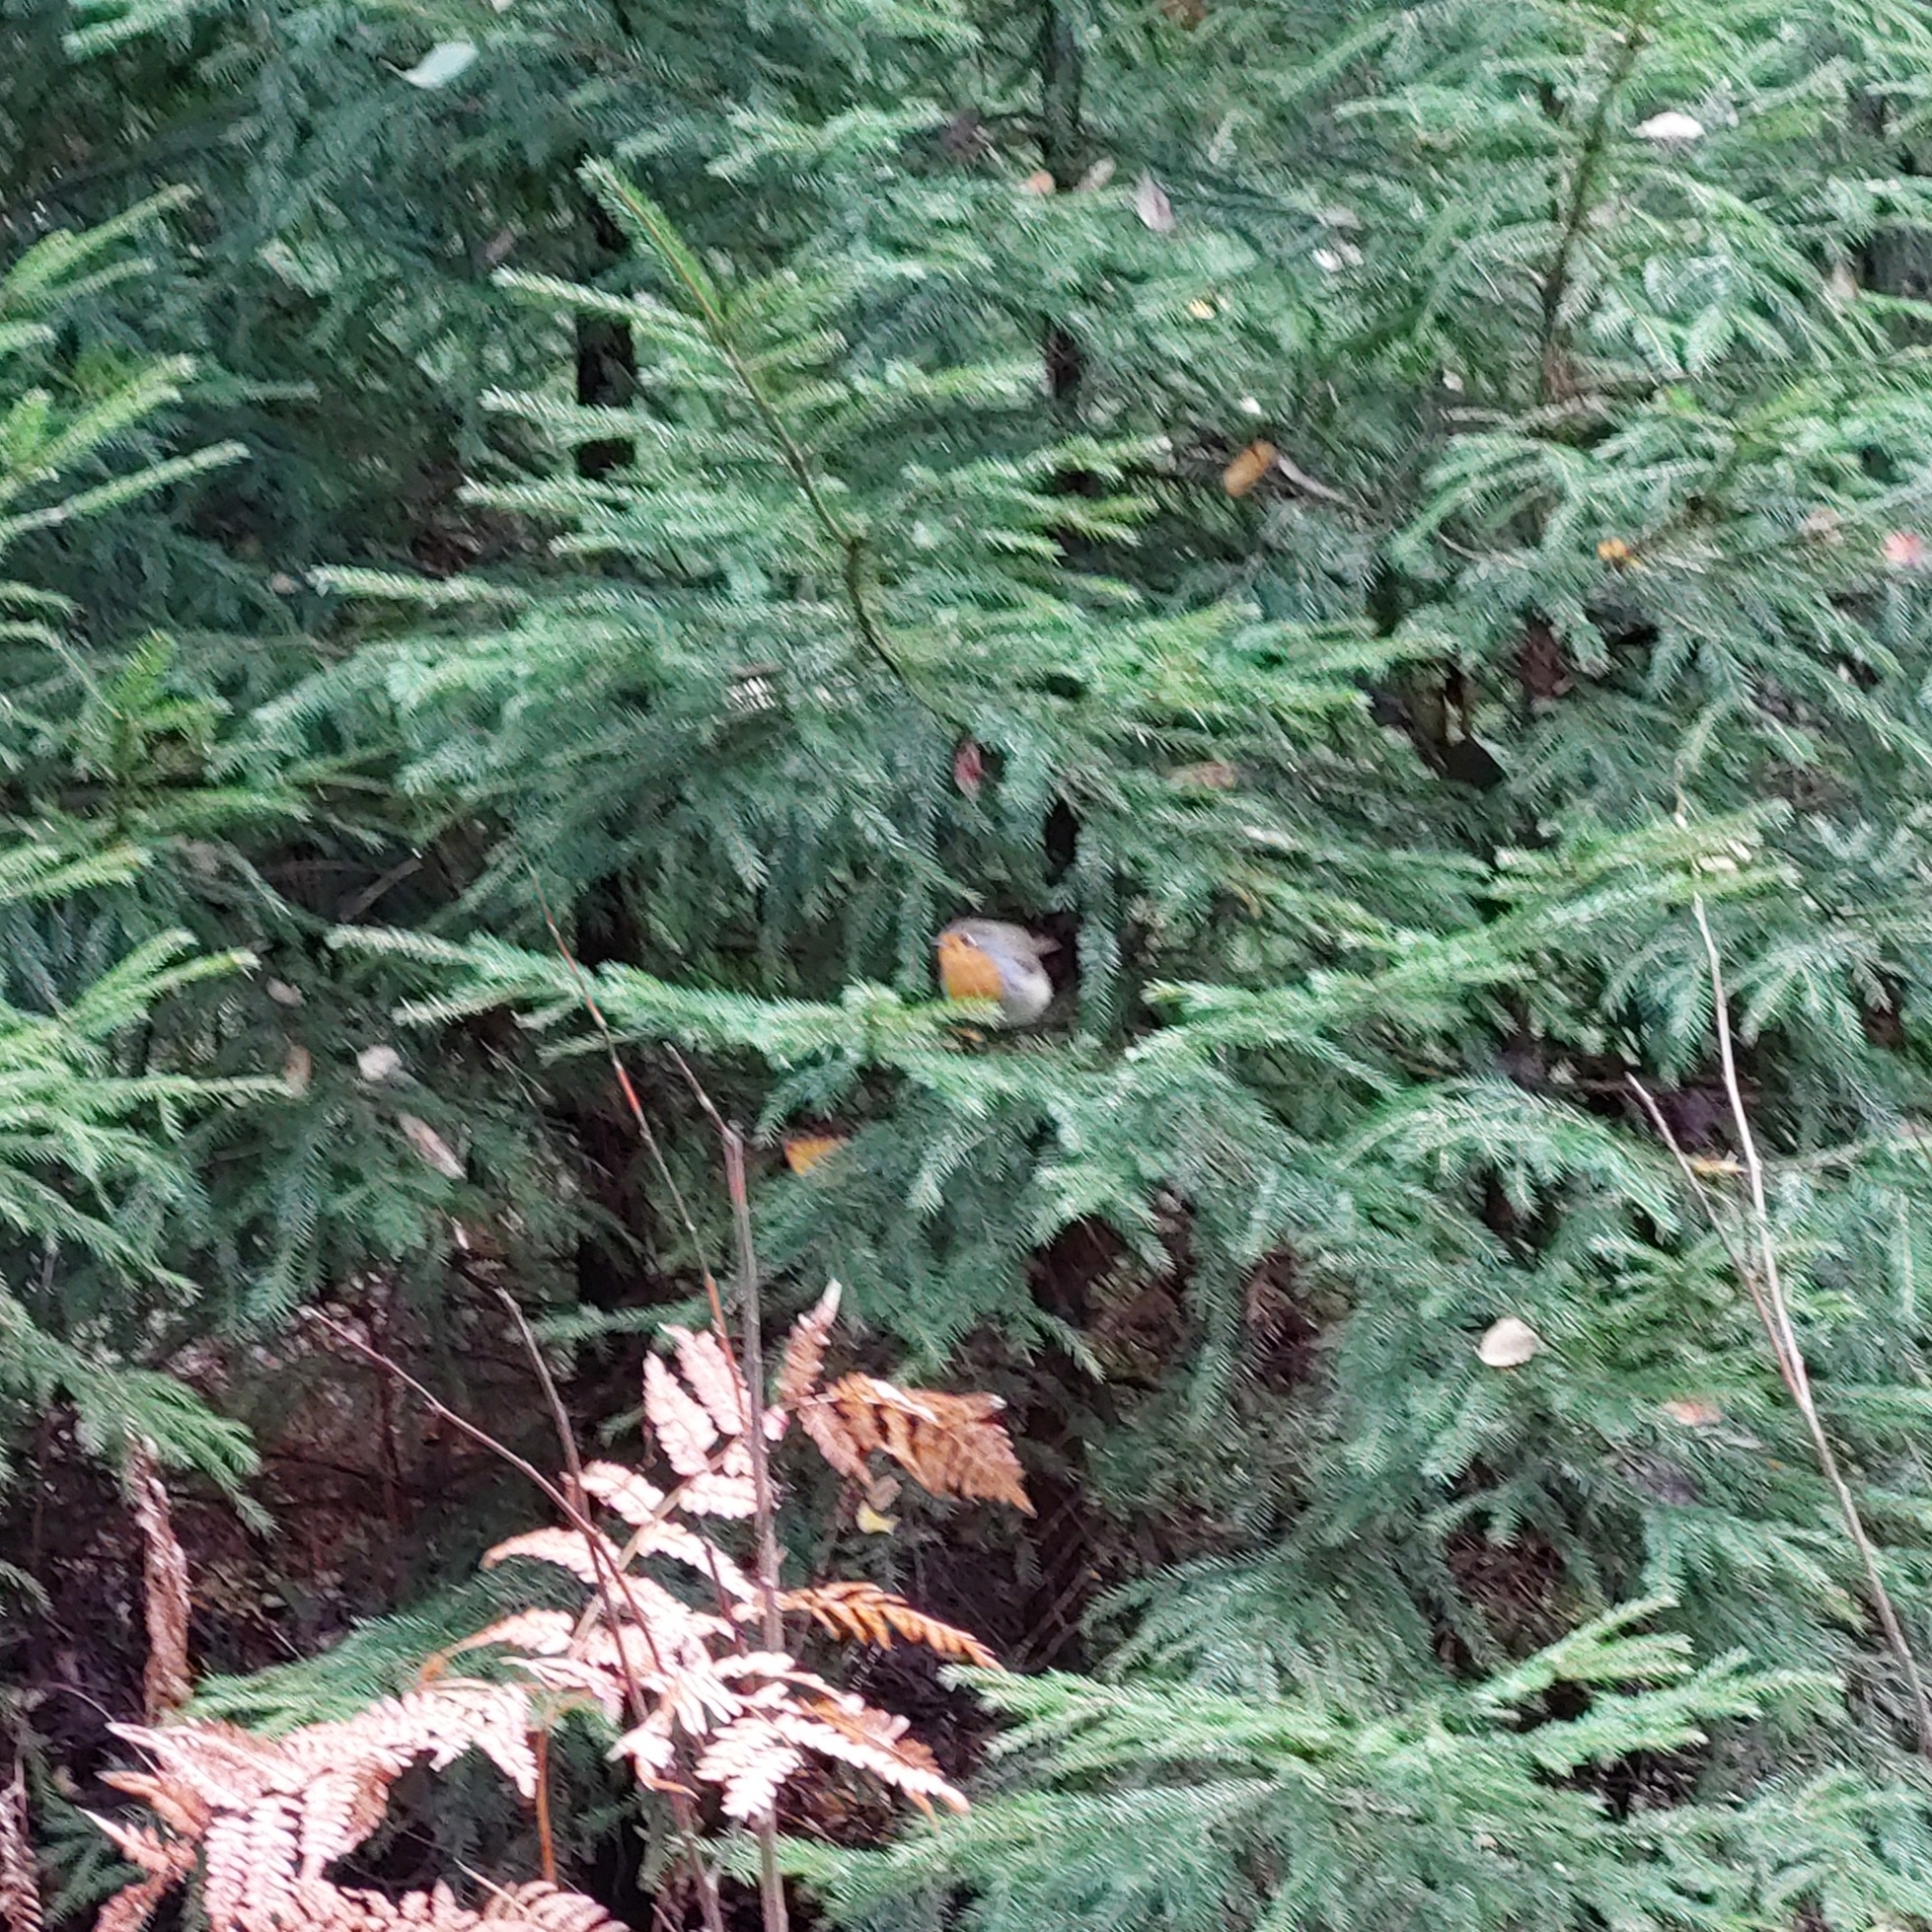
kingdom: Animalia
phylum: Chordata
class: Aves
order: Passeriformes
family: Muscicapidae
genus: Erithacus
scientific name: Erithacus rubecula
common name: European robin
